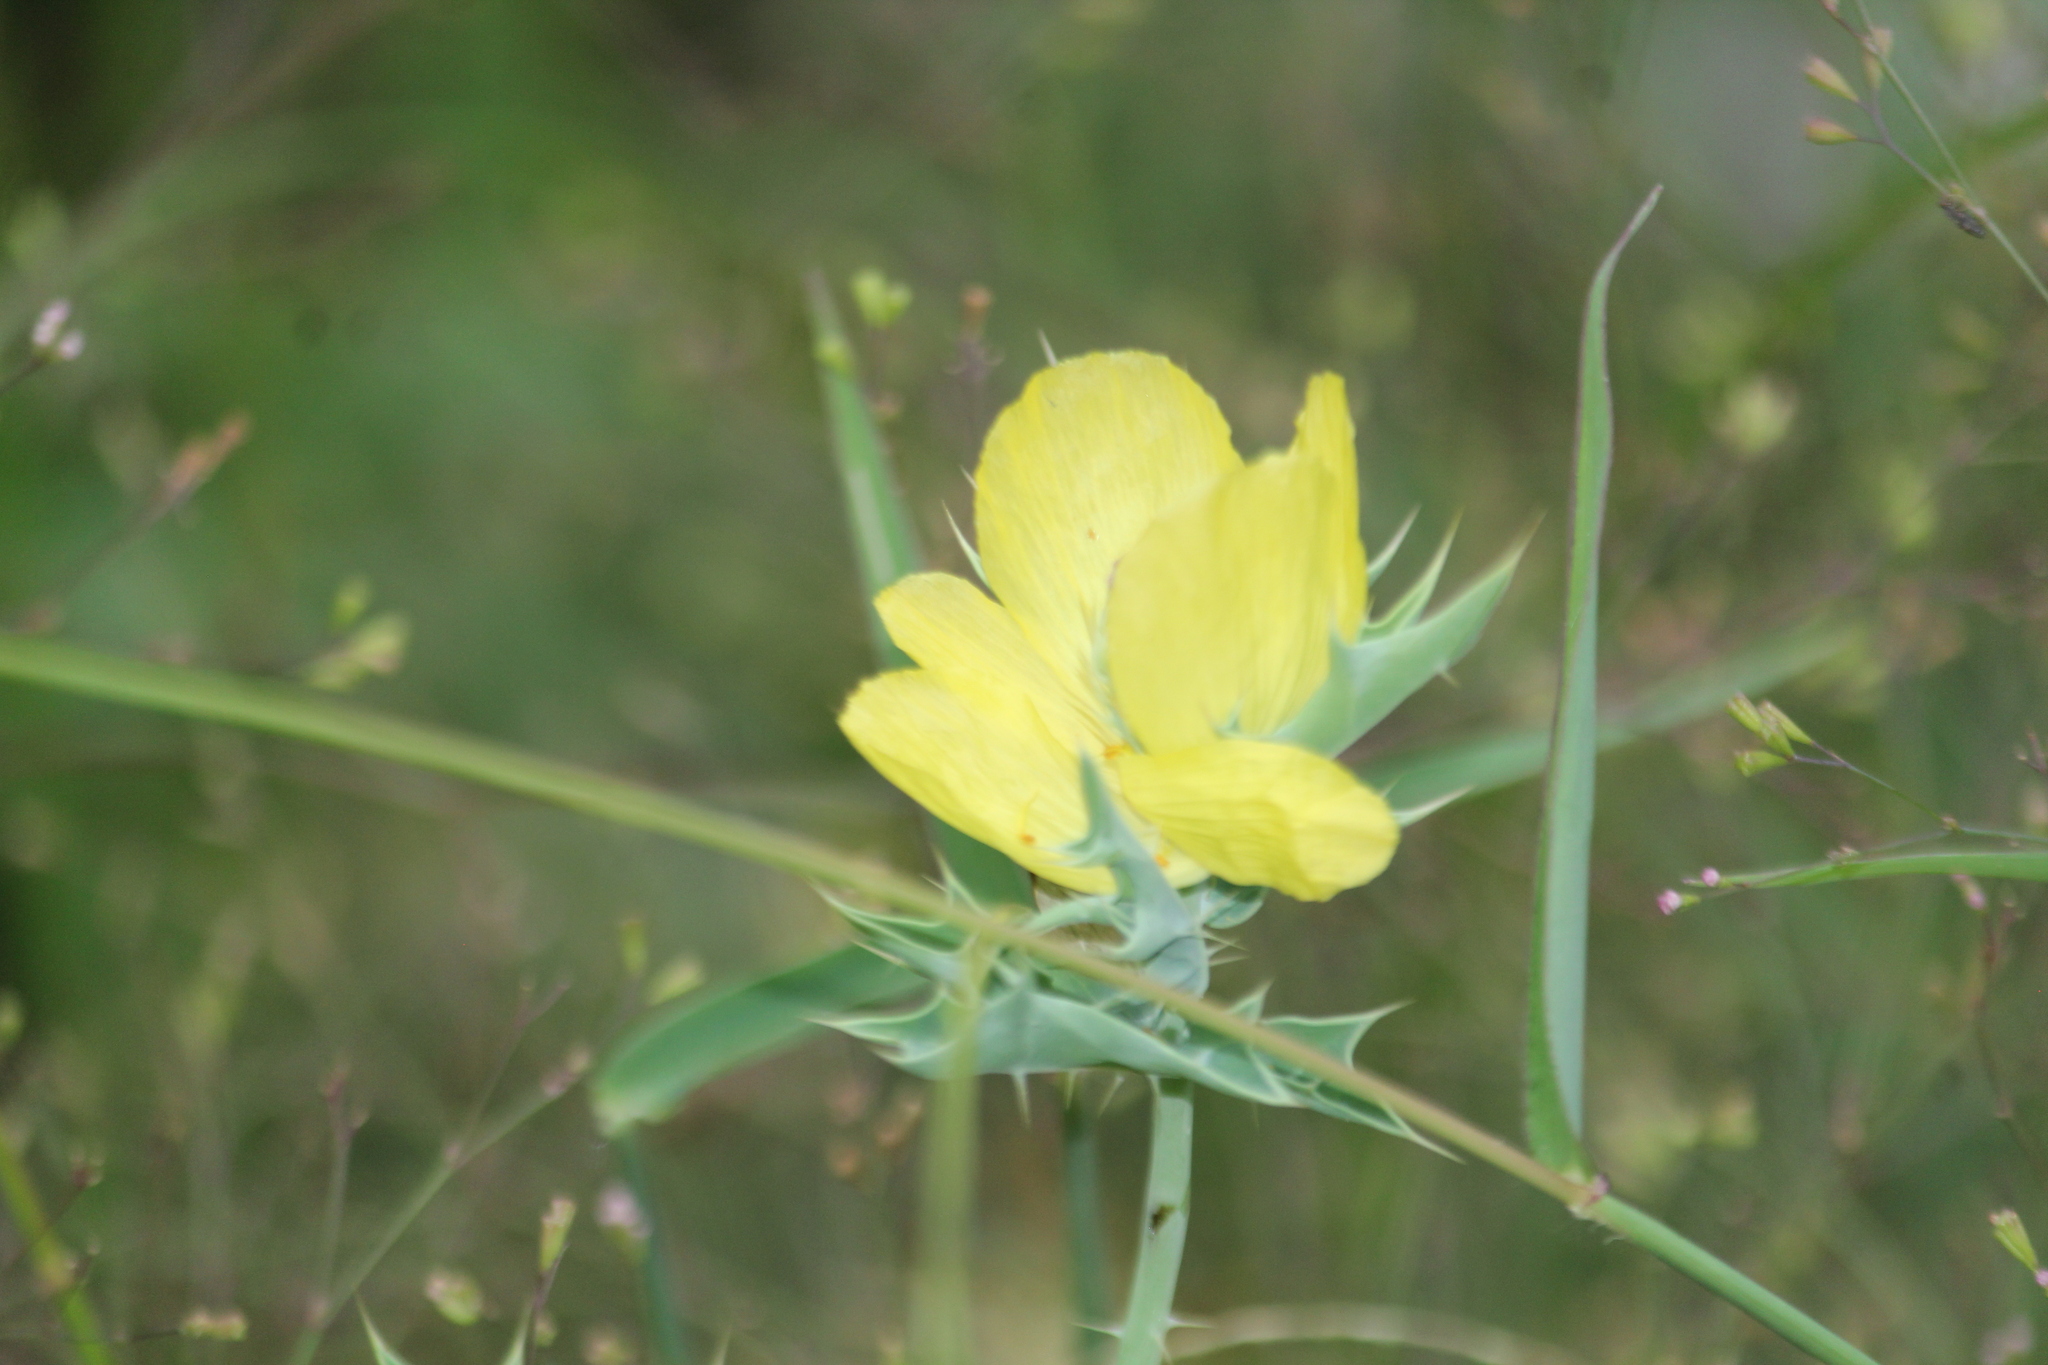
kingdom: Plantae
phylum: Tracheophyta
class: Magnoliopsida
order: Ranunculales
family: Papaveraceae
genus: Argemone
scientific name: Argemone mexicana
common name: Mexican poppy
